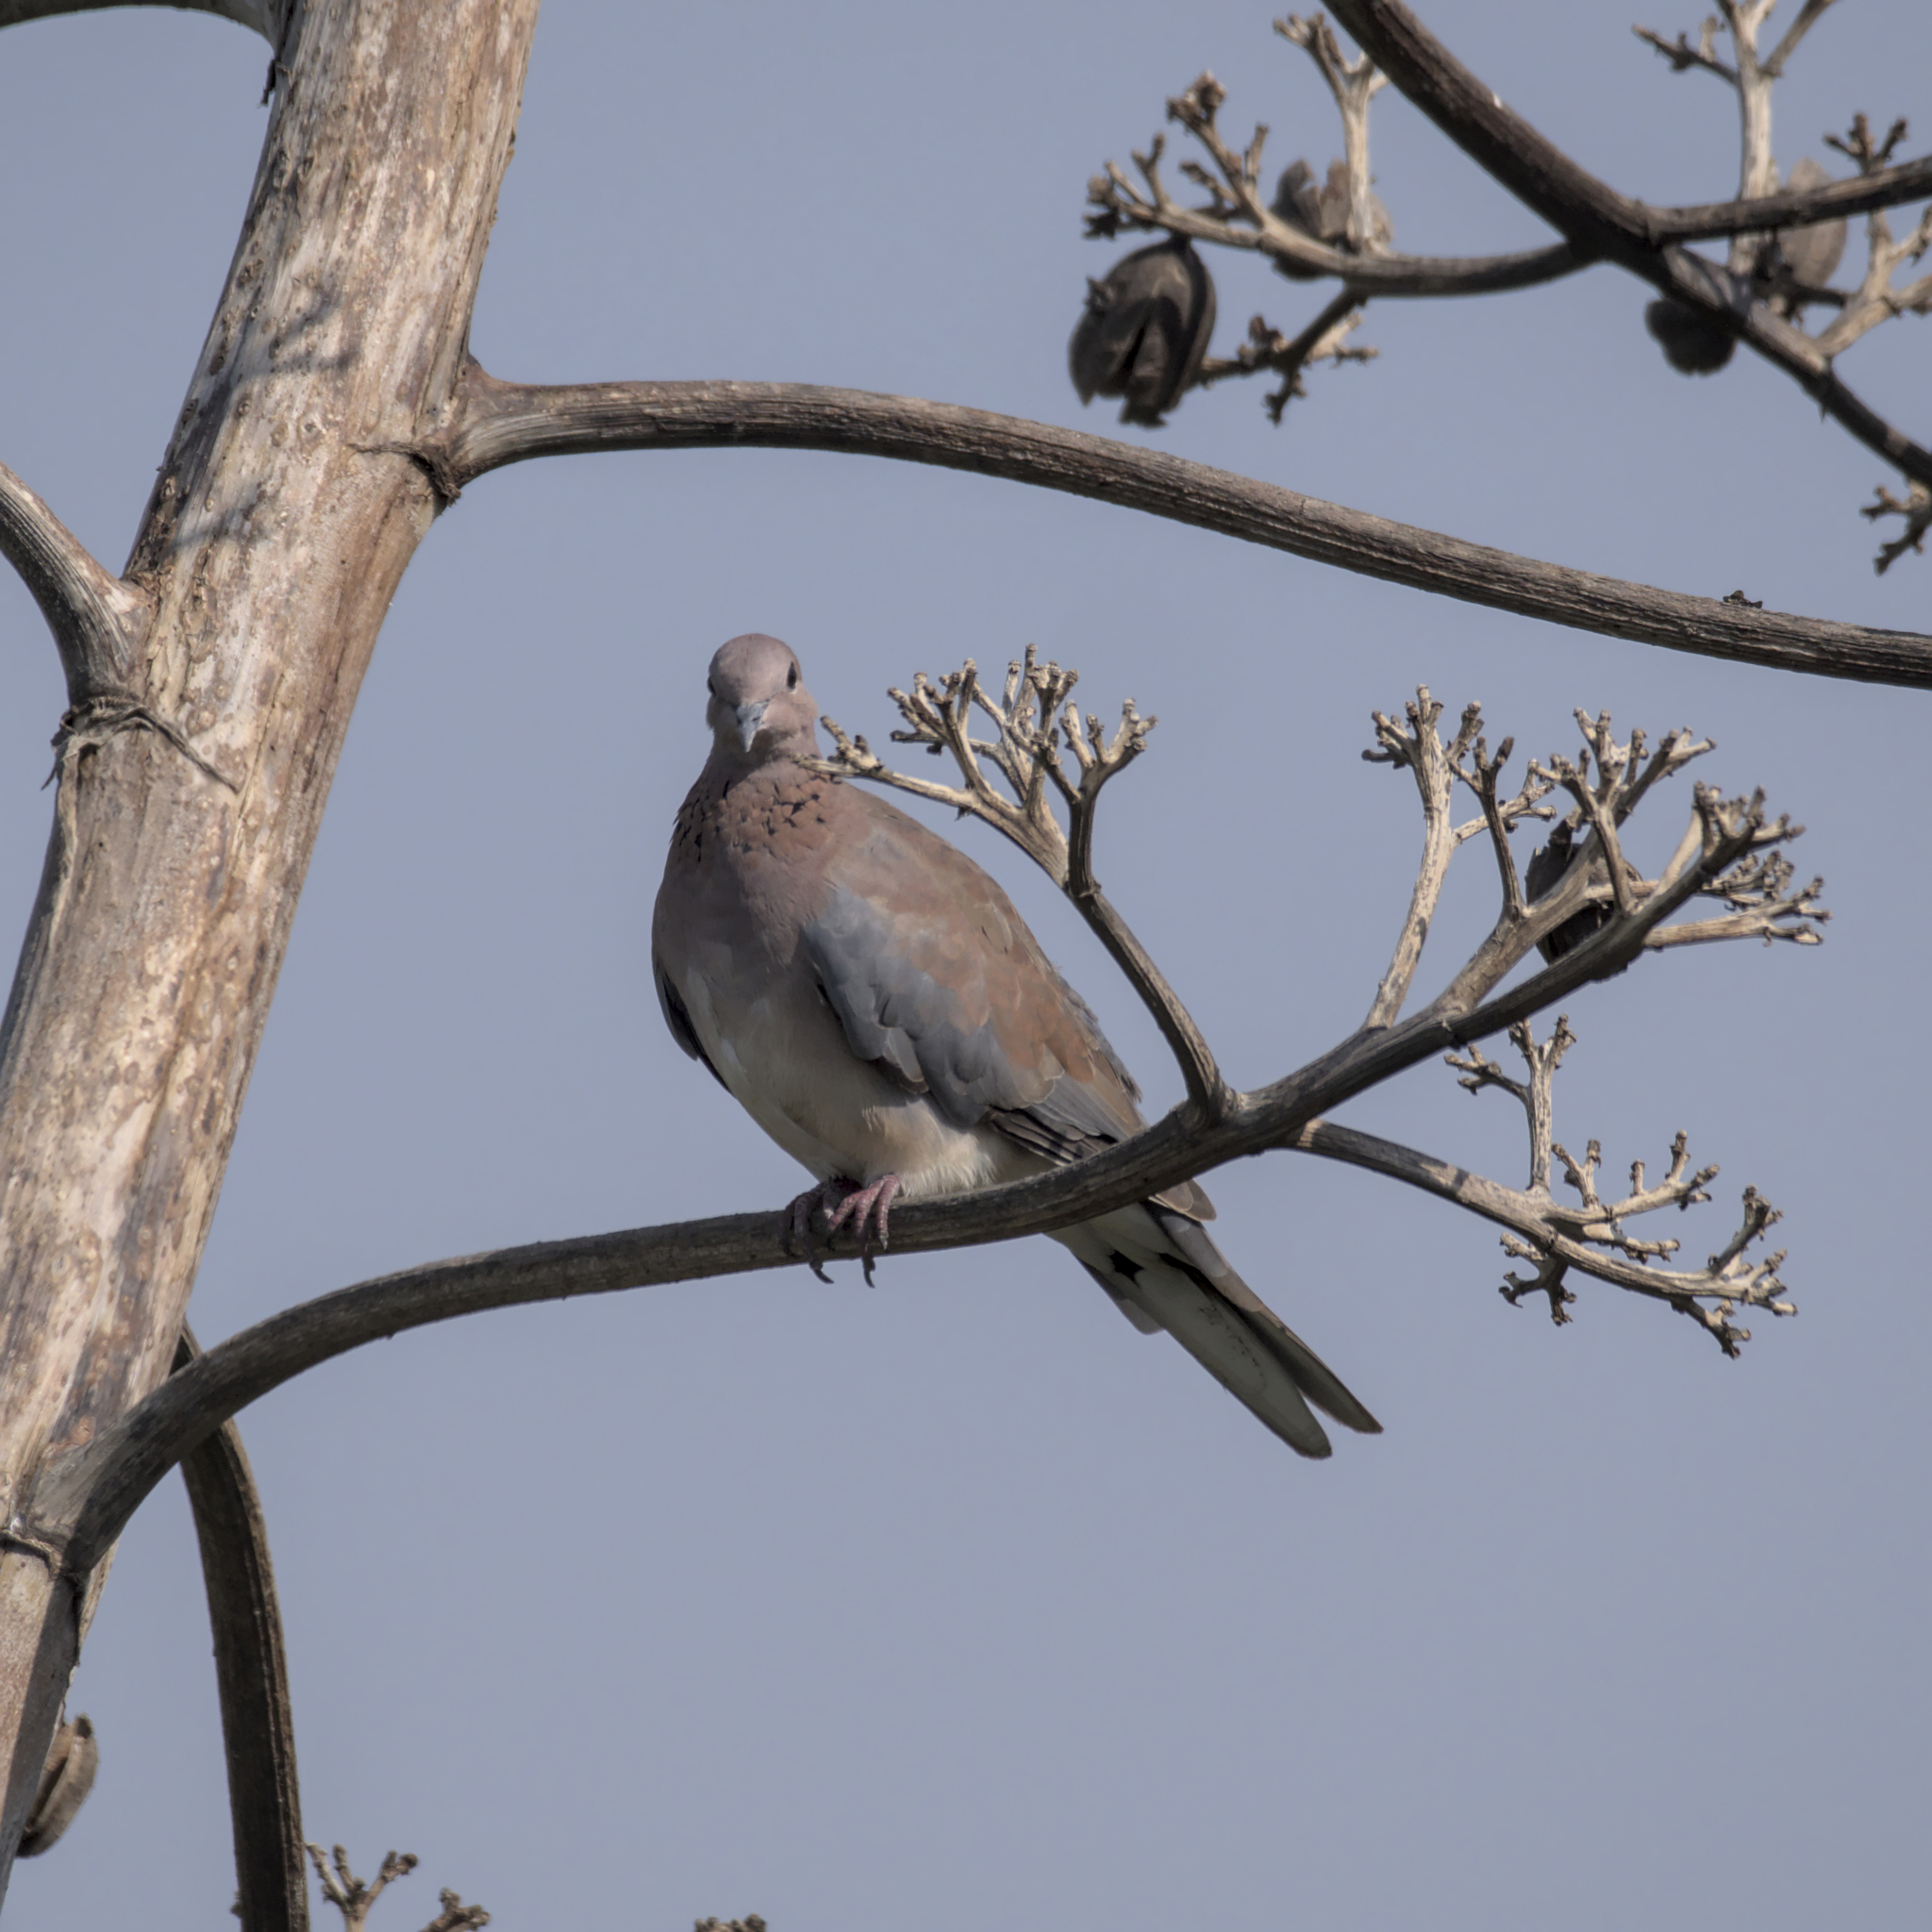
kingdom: Animalia
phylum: Chordata
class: Aves
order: Columbiformes
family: Columbidae
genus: Spilopelia
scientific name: Spilopelia senegalensis
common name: Laughing dove
